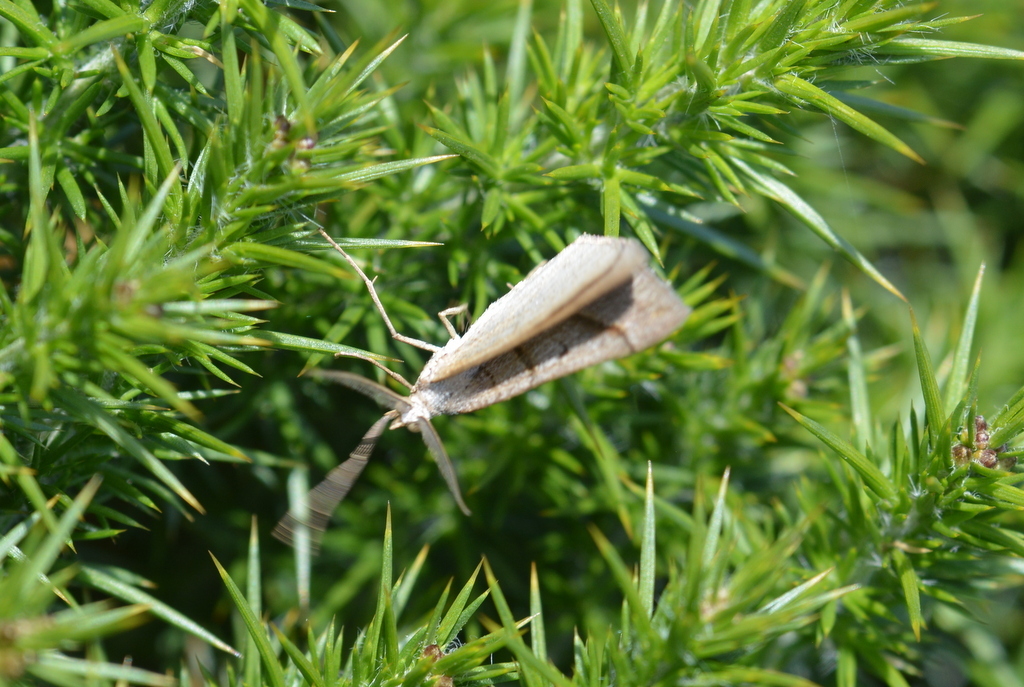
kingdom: Animalia
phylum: Arthropoda
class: Insecta
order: Lepidoptera
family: Geometridae
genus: Scotopteryx
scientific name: Scotopteryx luridata
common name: July belle
